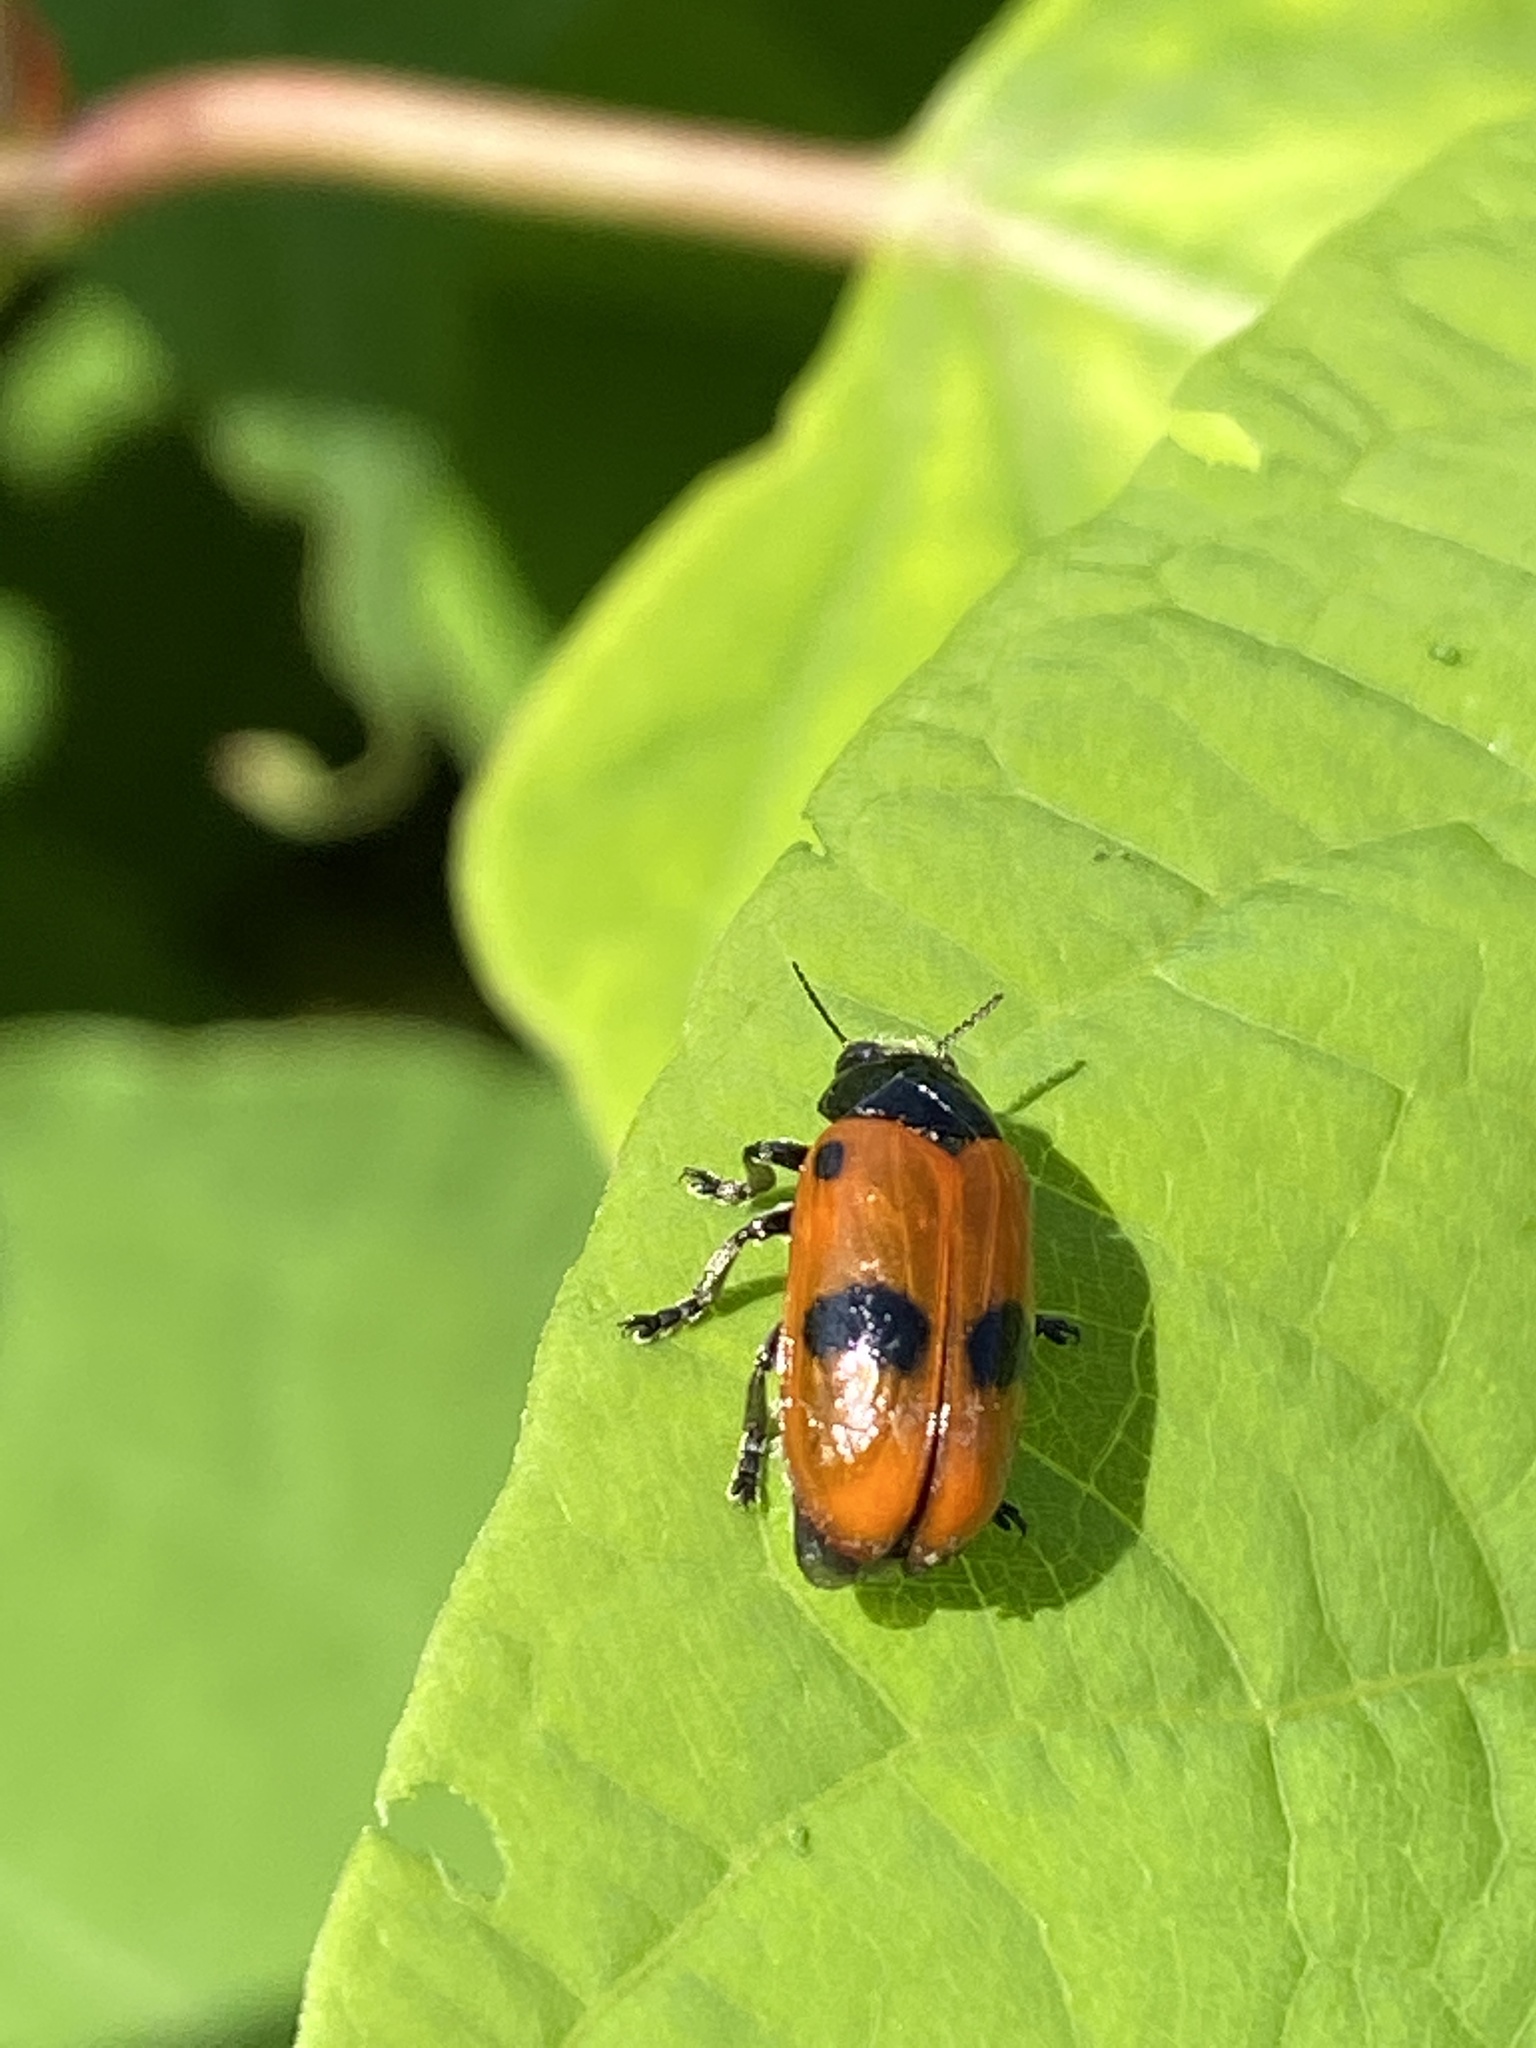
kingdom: Animalia
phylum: Arthropoda
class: Insecta
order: Coleoptera
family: Chrysomelidae
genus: Clytra
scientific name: Clytra laeviuscula
